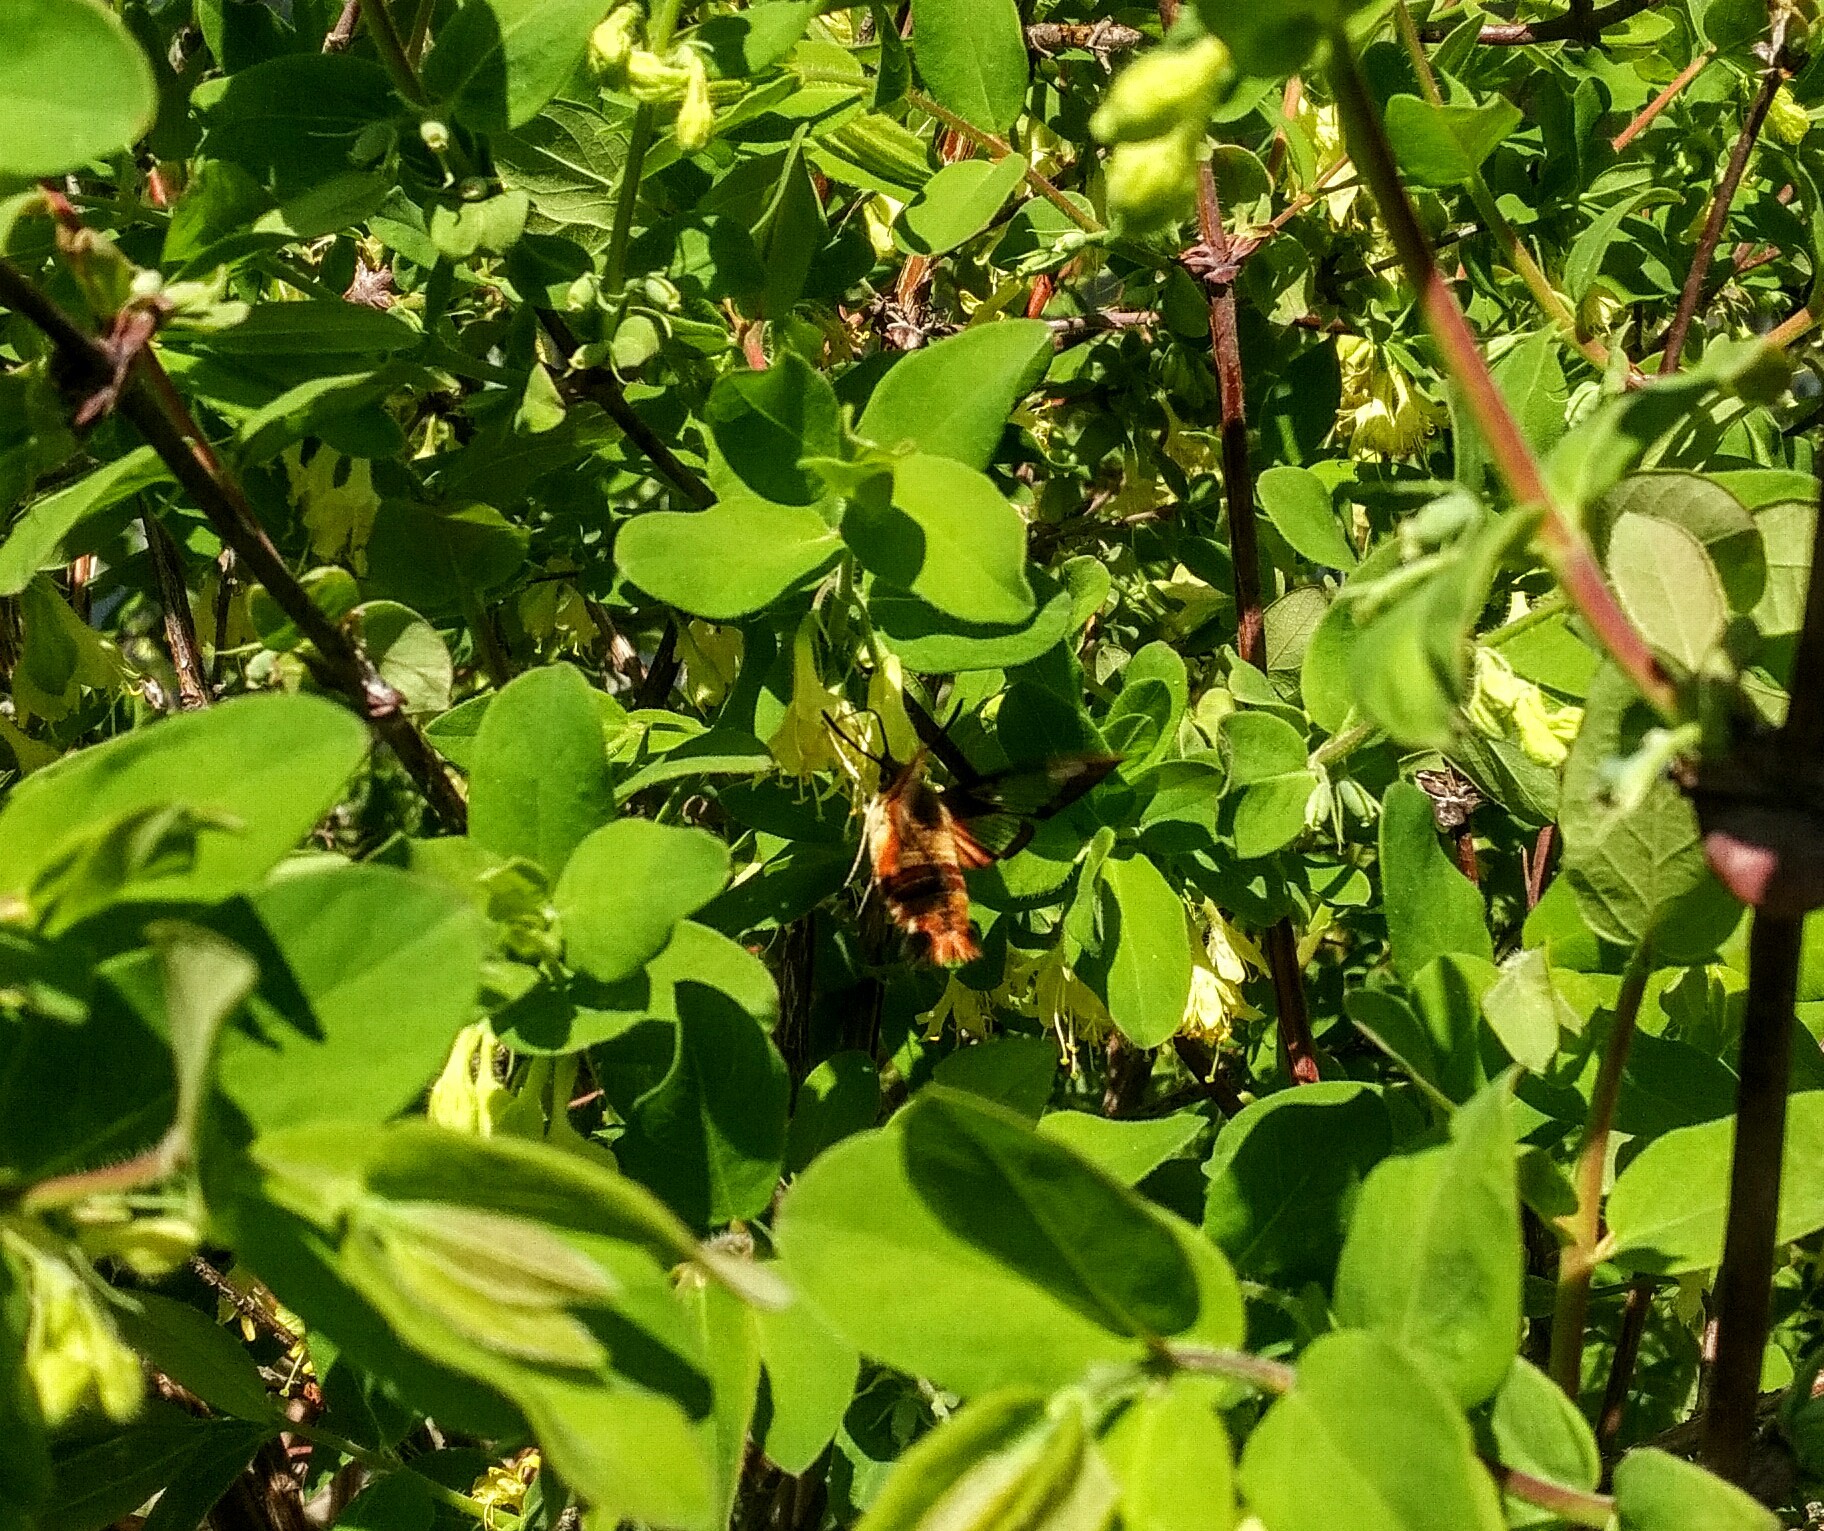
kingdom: Animalia
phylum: Arthropoda
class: Insecta
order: Lepidoptera
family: Sphingidae
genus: Hemaris
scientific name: Hemaris thysbe
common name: Common clear-wing
